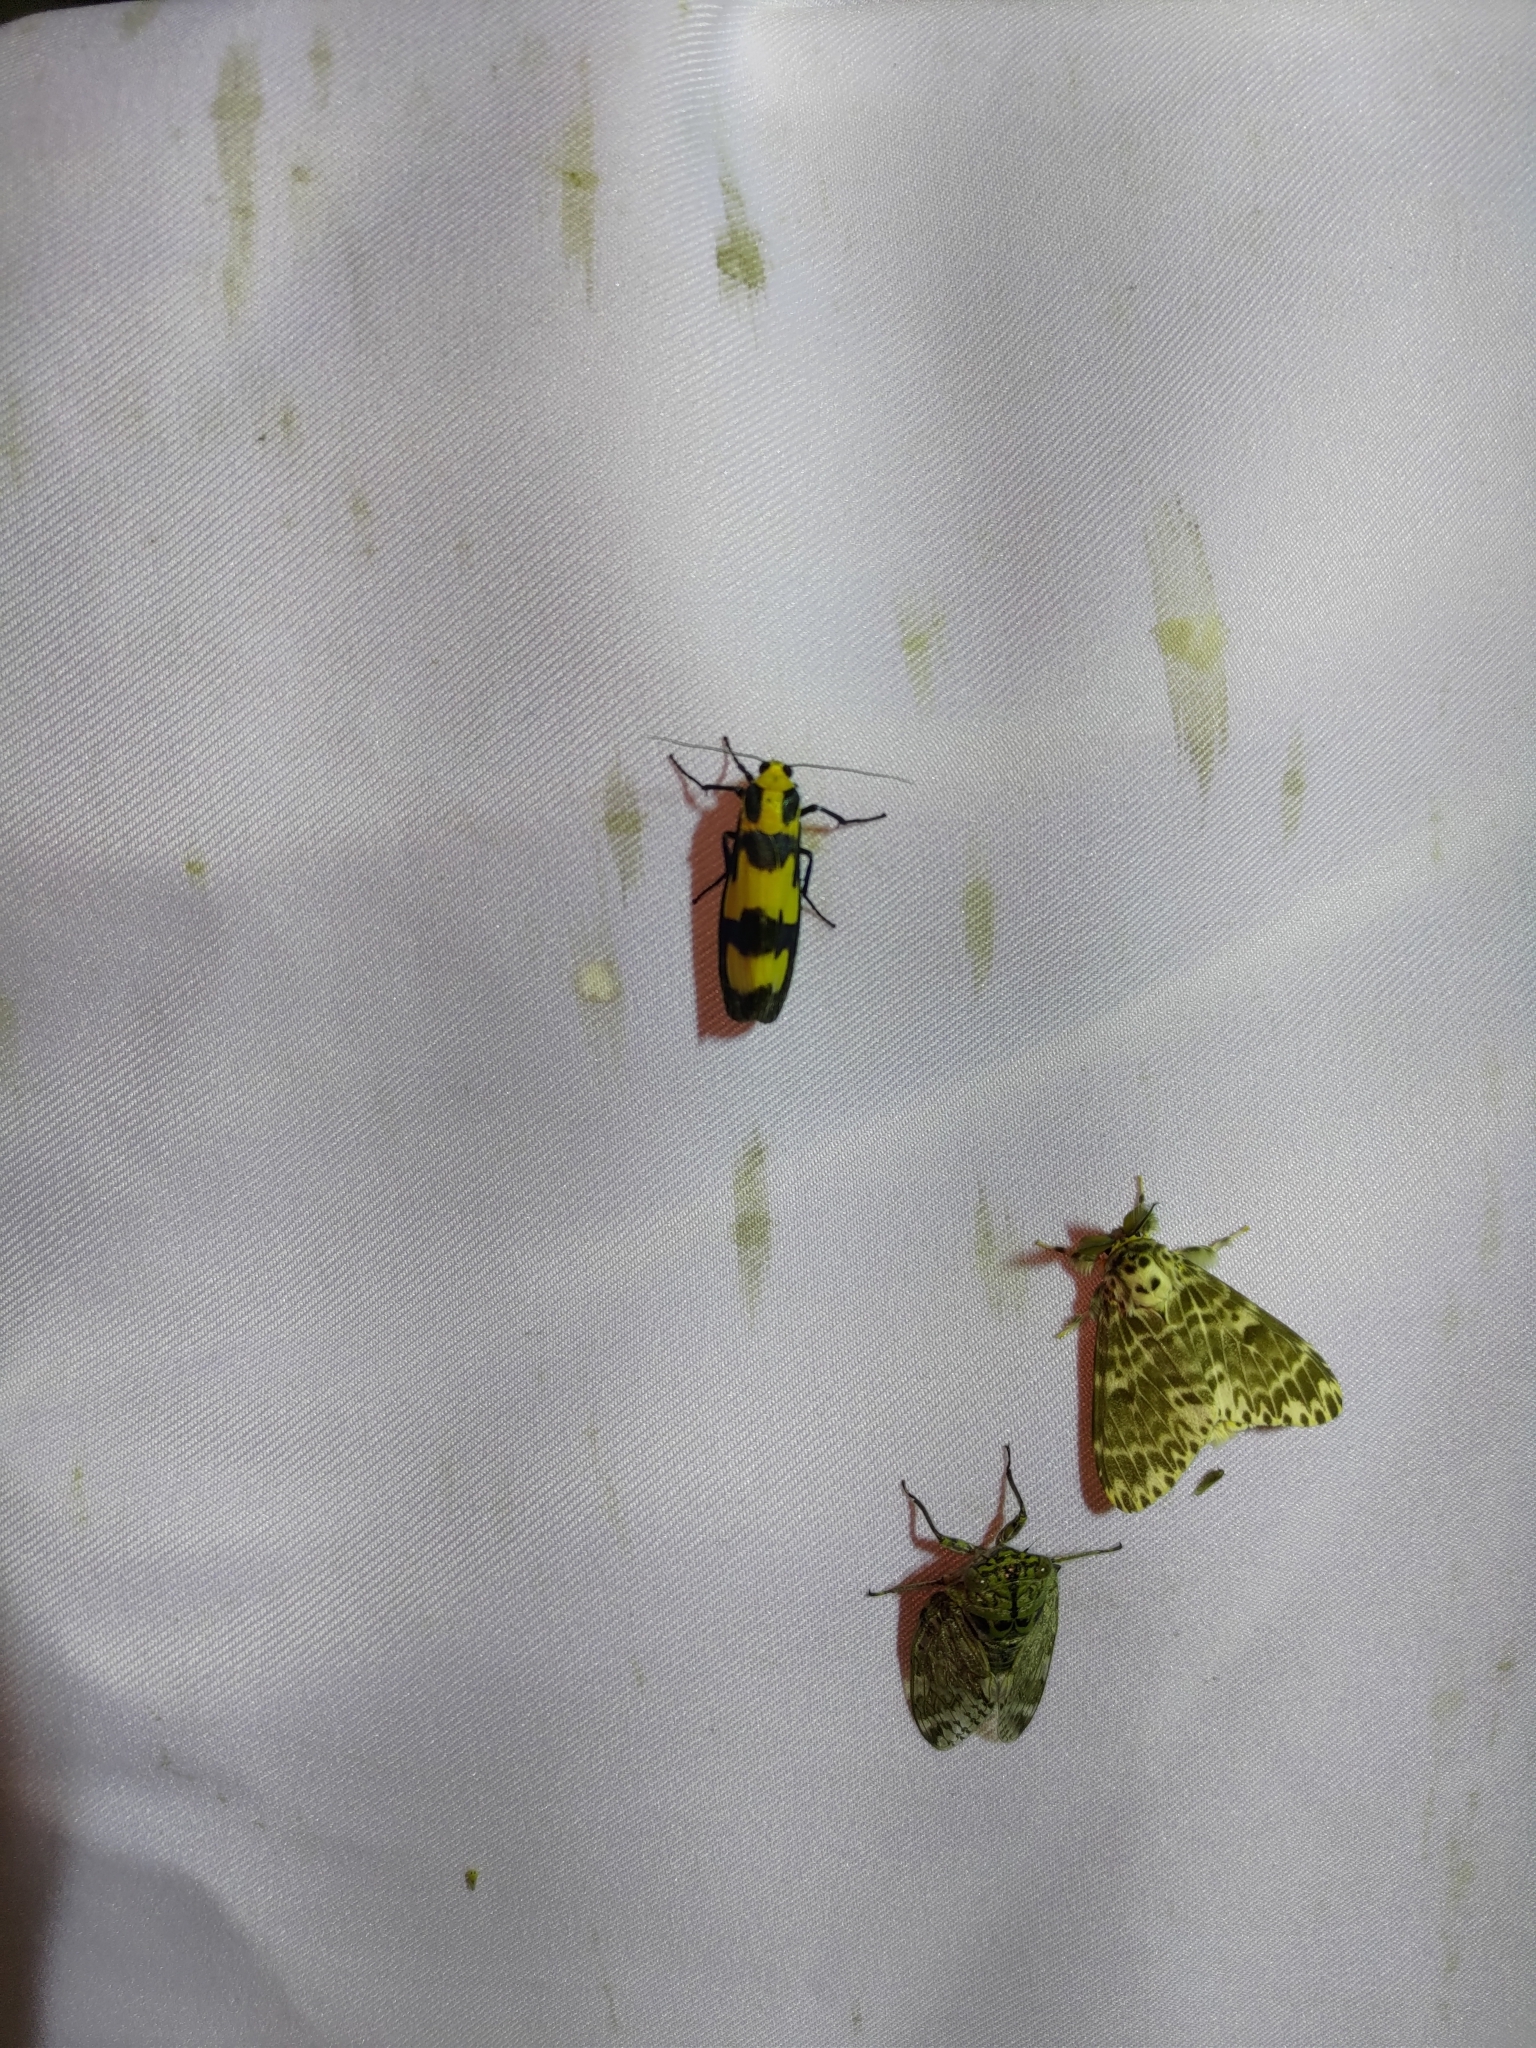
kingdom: Animalia
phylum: Arthropoda
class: Insecta
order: Lepidoptera
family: Erebidae
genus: Chrysaeglia
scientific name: Chrysaeglia magnifica
